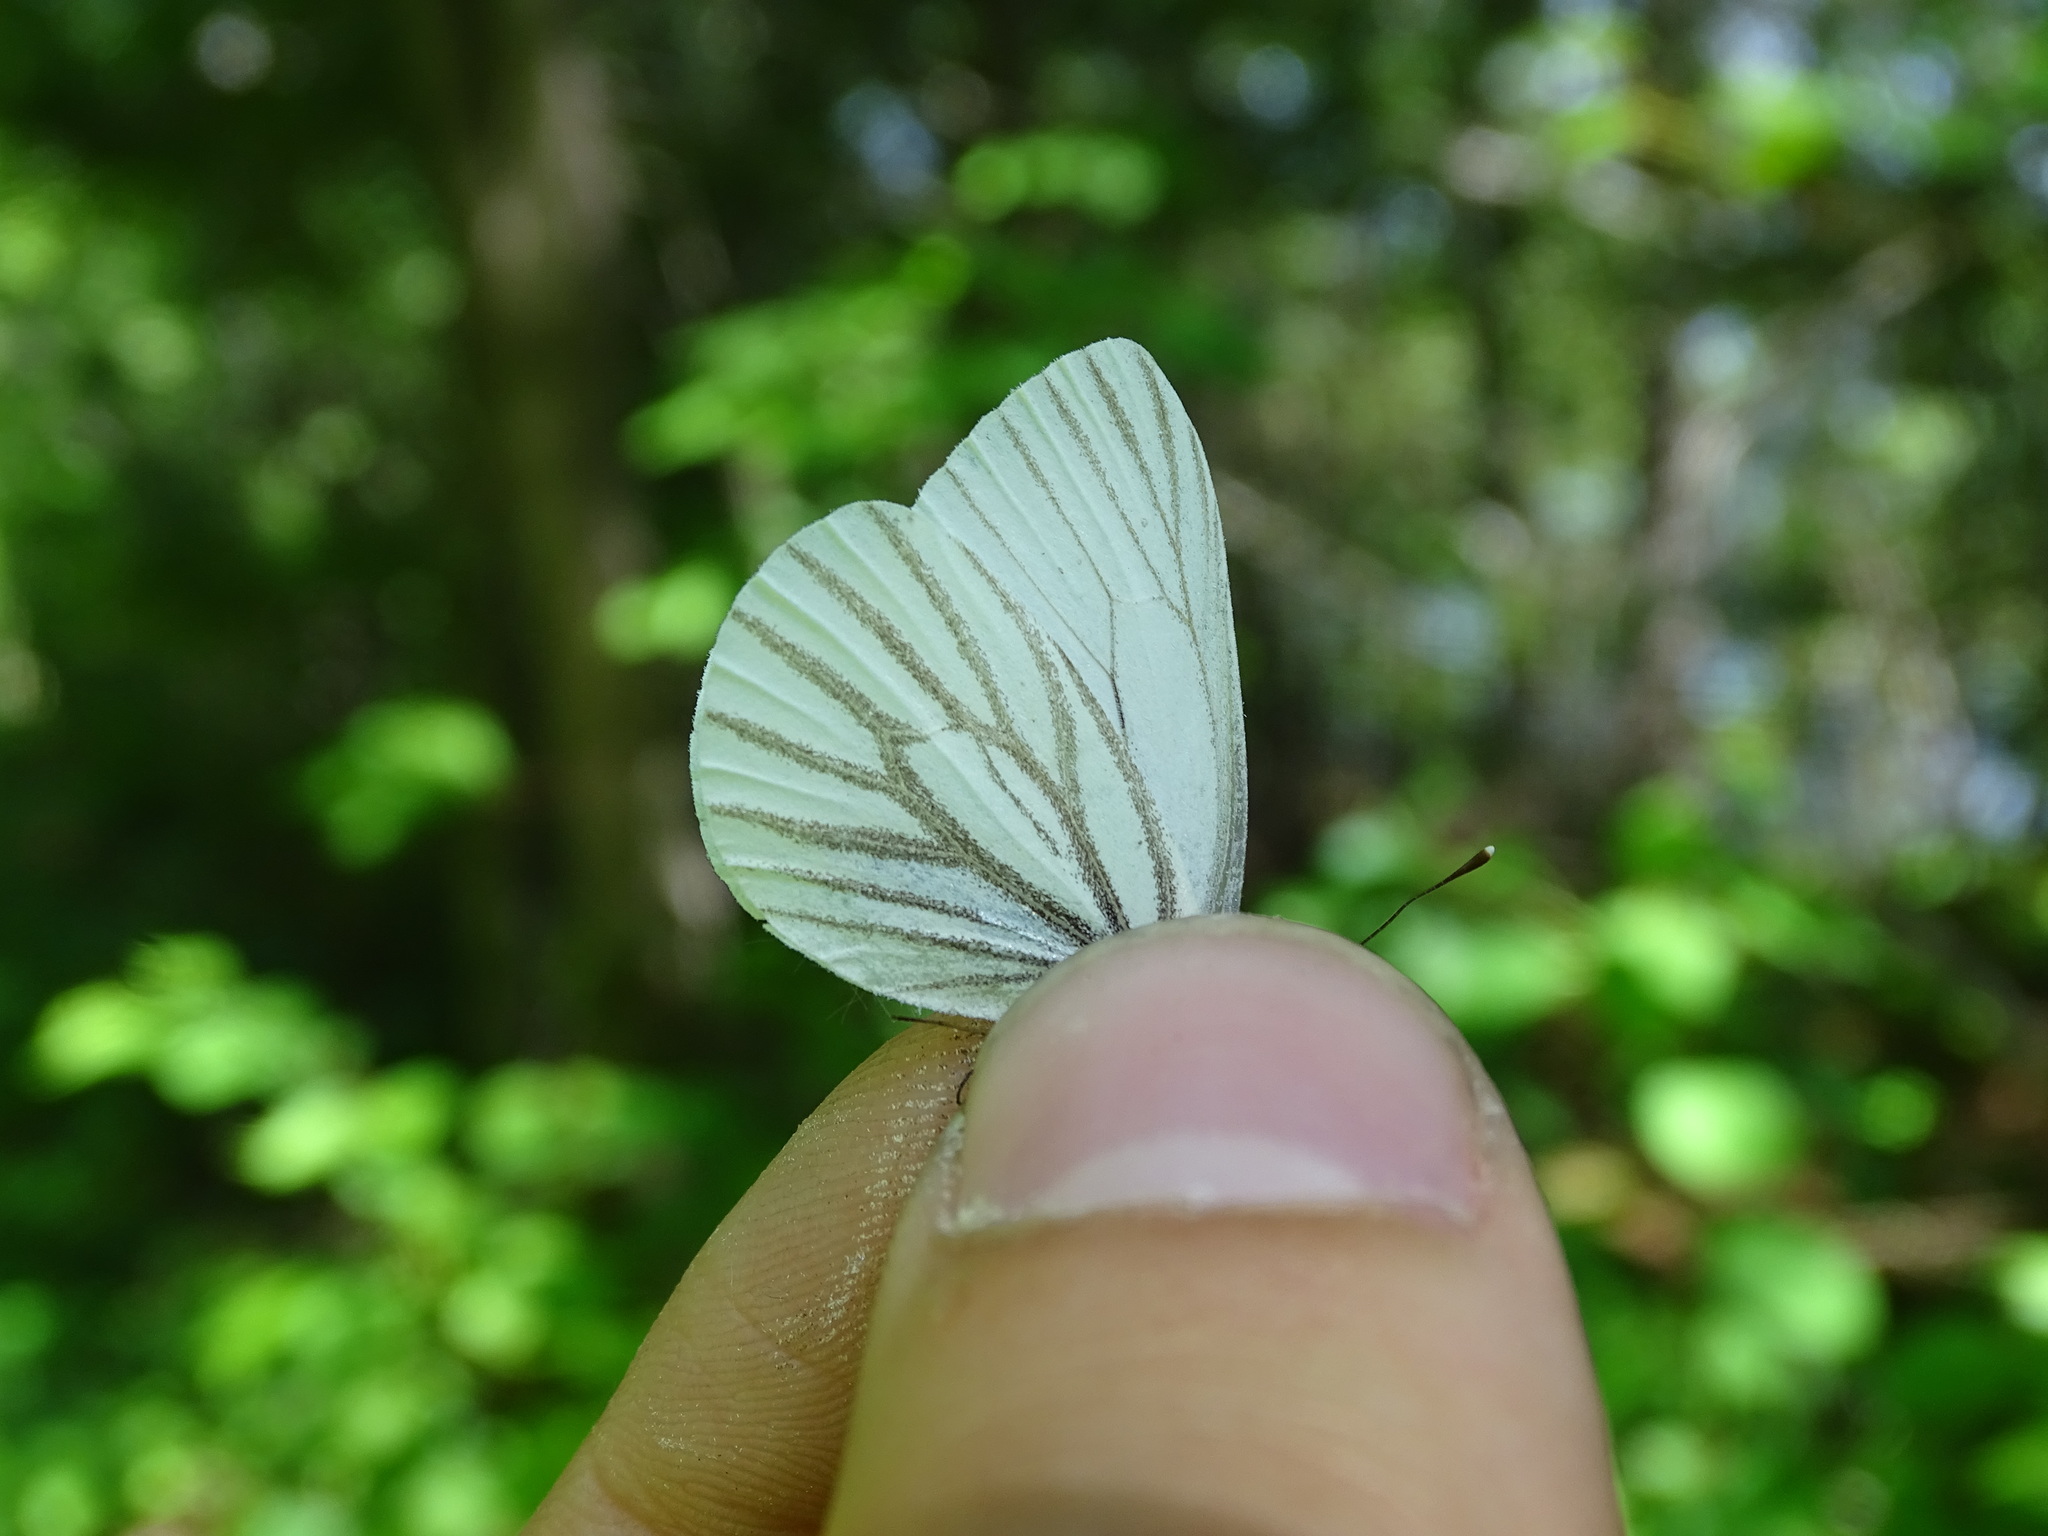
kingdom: Animalia
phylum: Arthropoda
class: Insecta
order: Lepidoptera
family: Pieridae
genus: Pieris
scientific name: Pieris oleracea
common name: Mustard white
